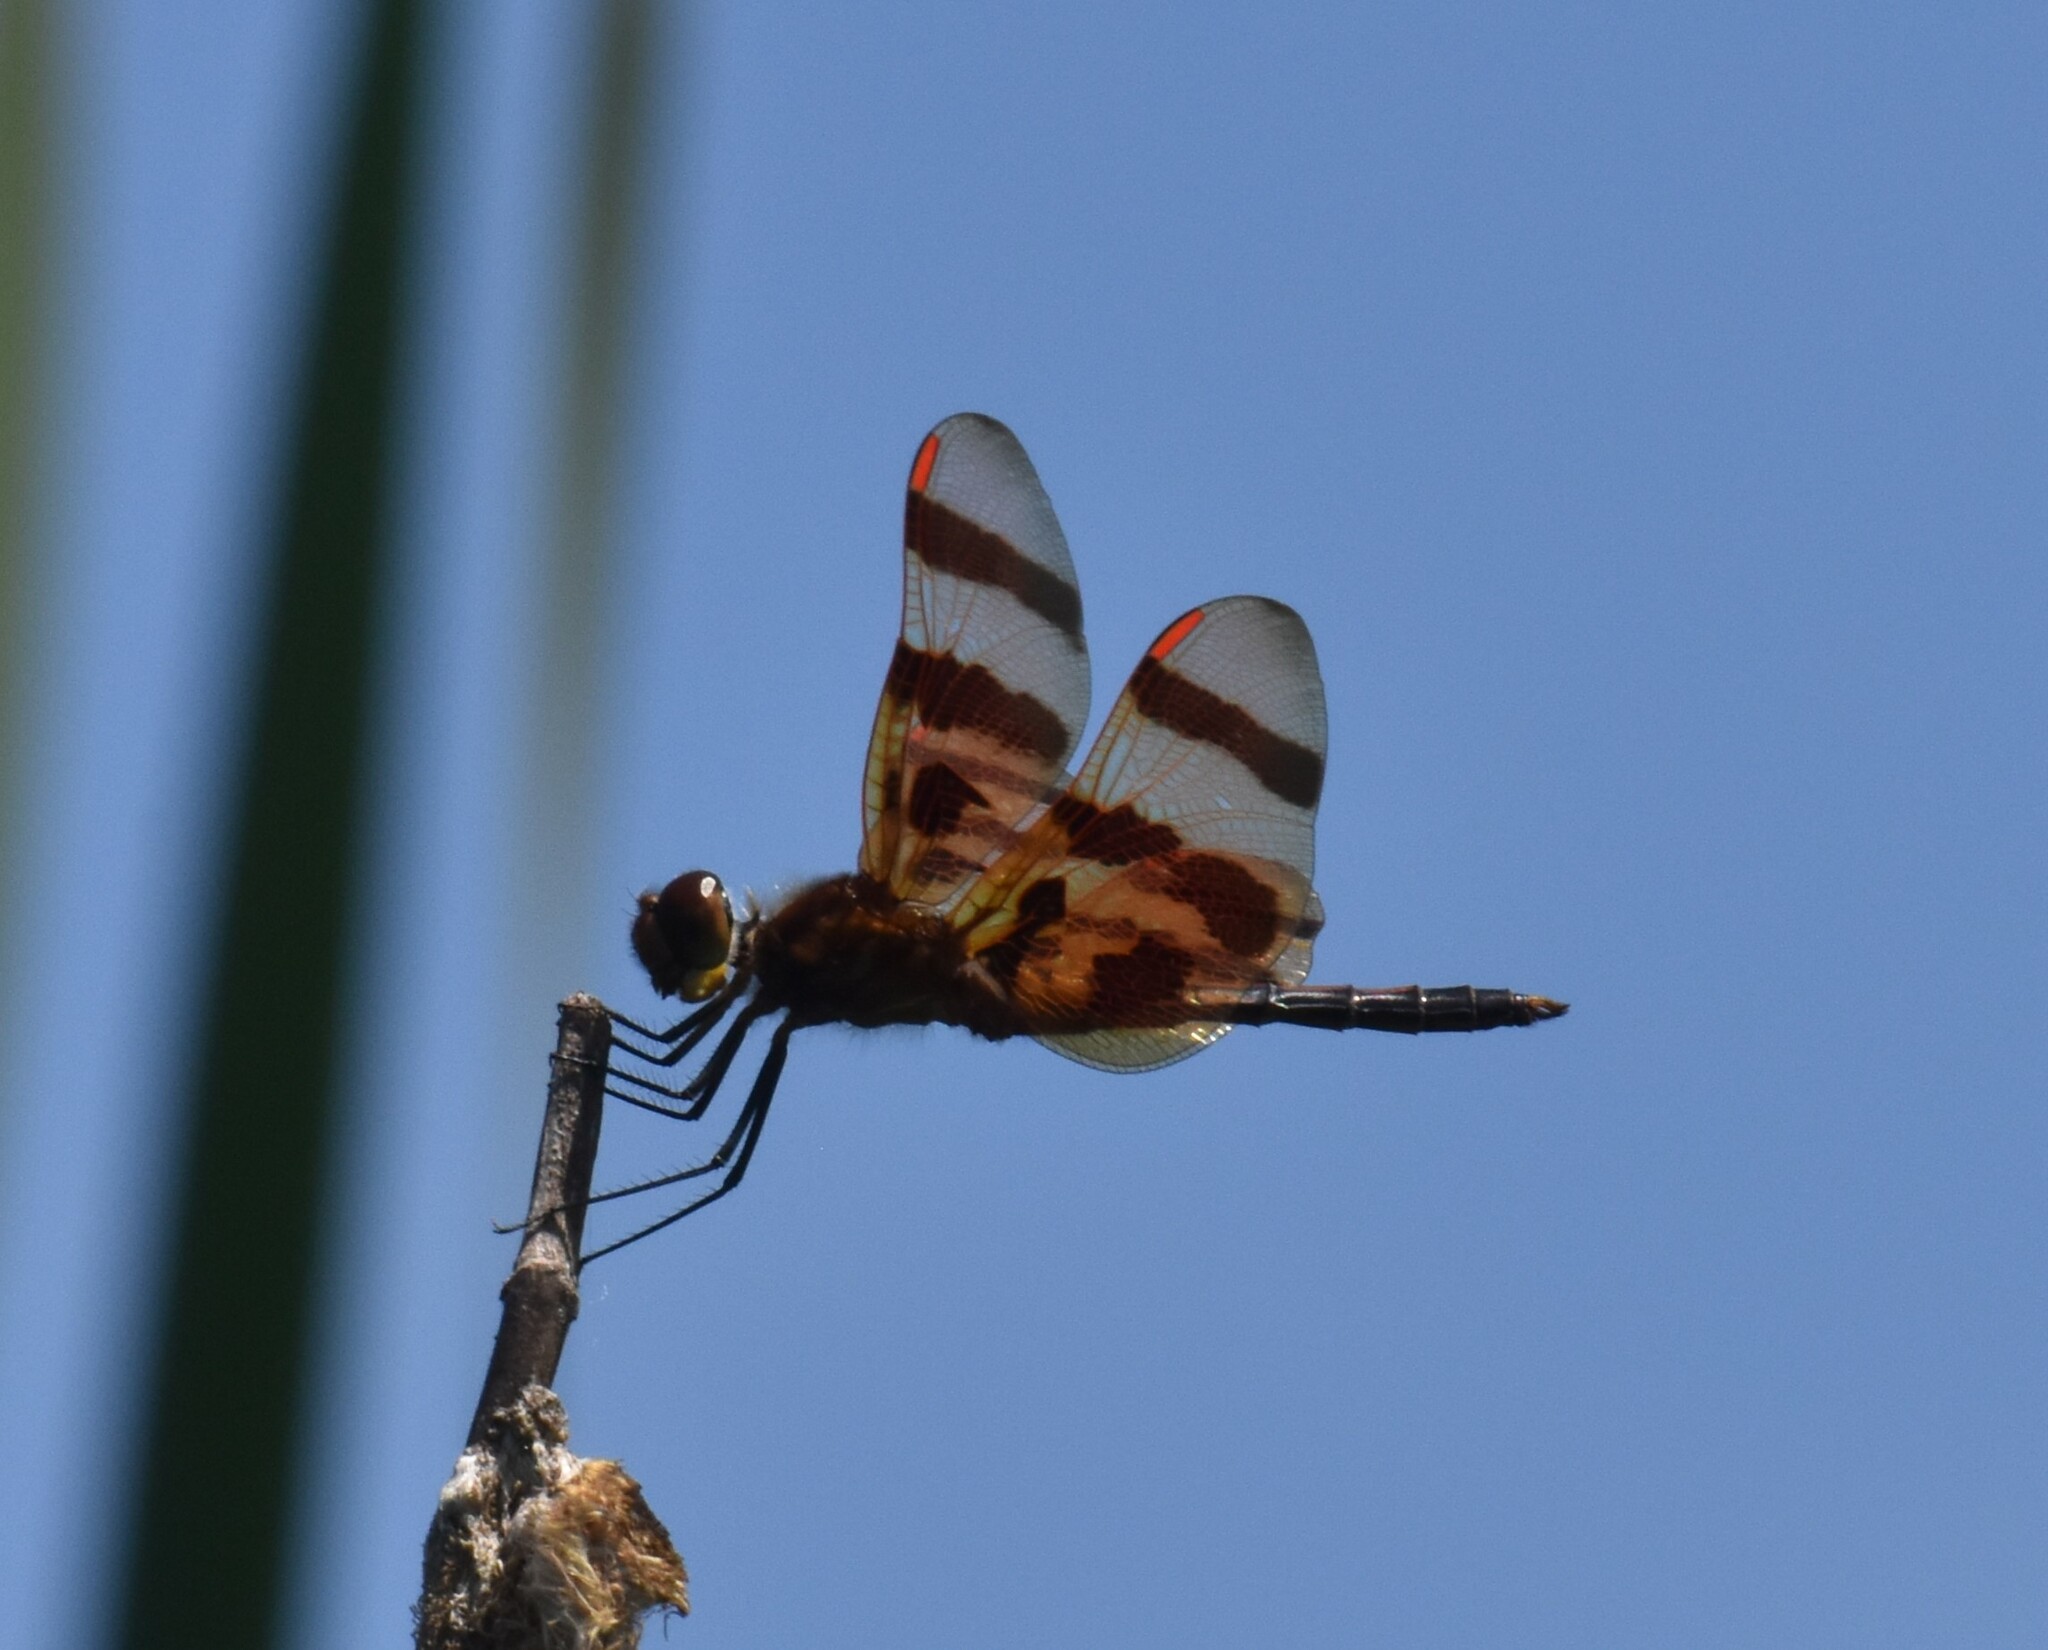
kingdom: Animalia
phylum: Arthropoda
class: Insecta
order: Odonata
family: Libellulidae
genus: Celithemis
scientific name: Celithemis eponina
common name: Halloween pennant
